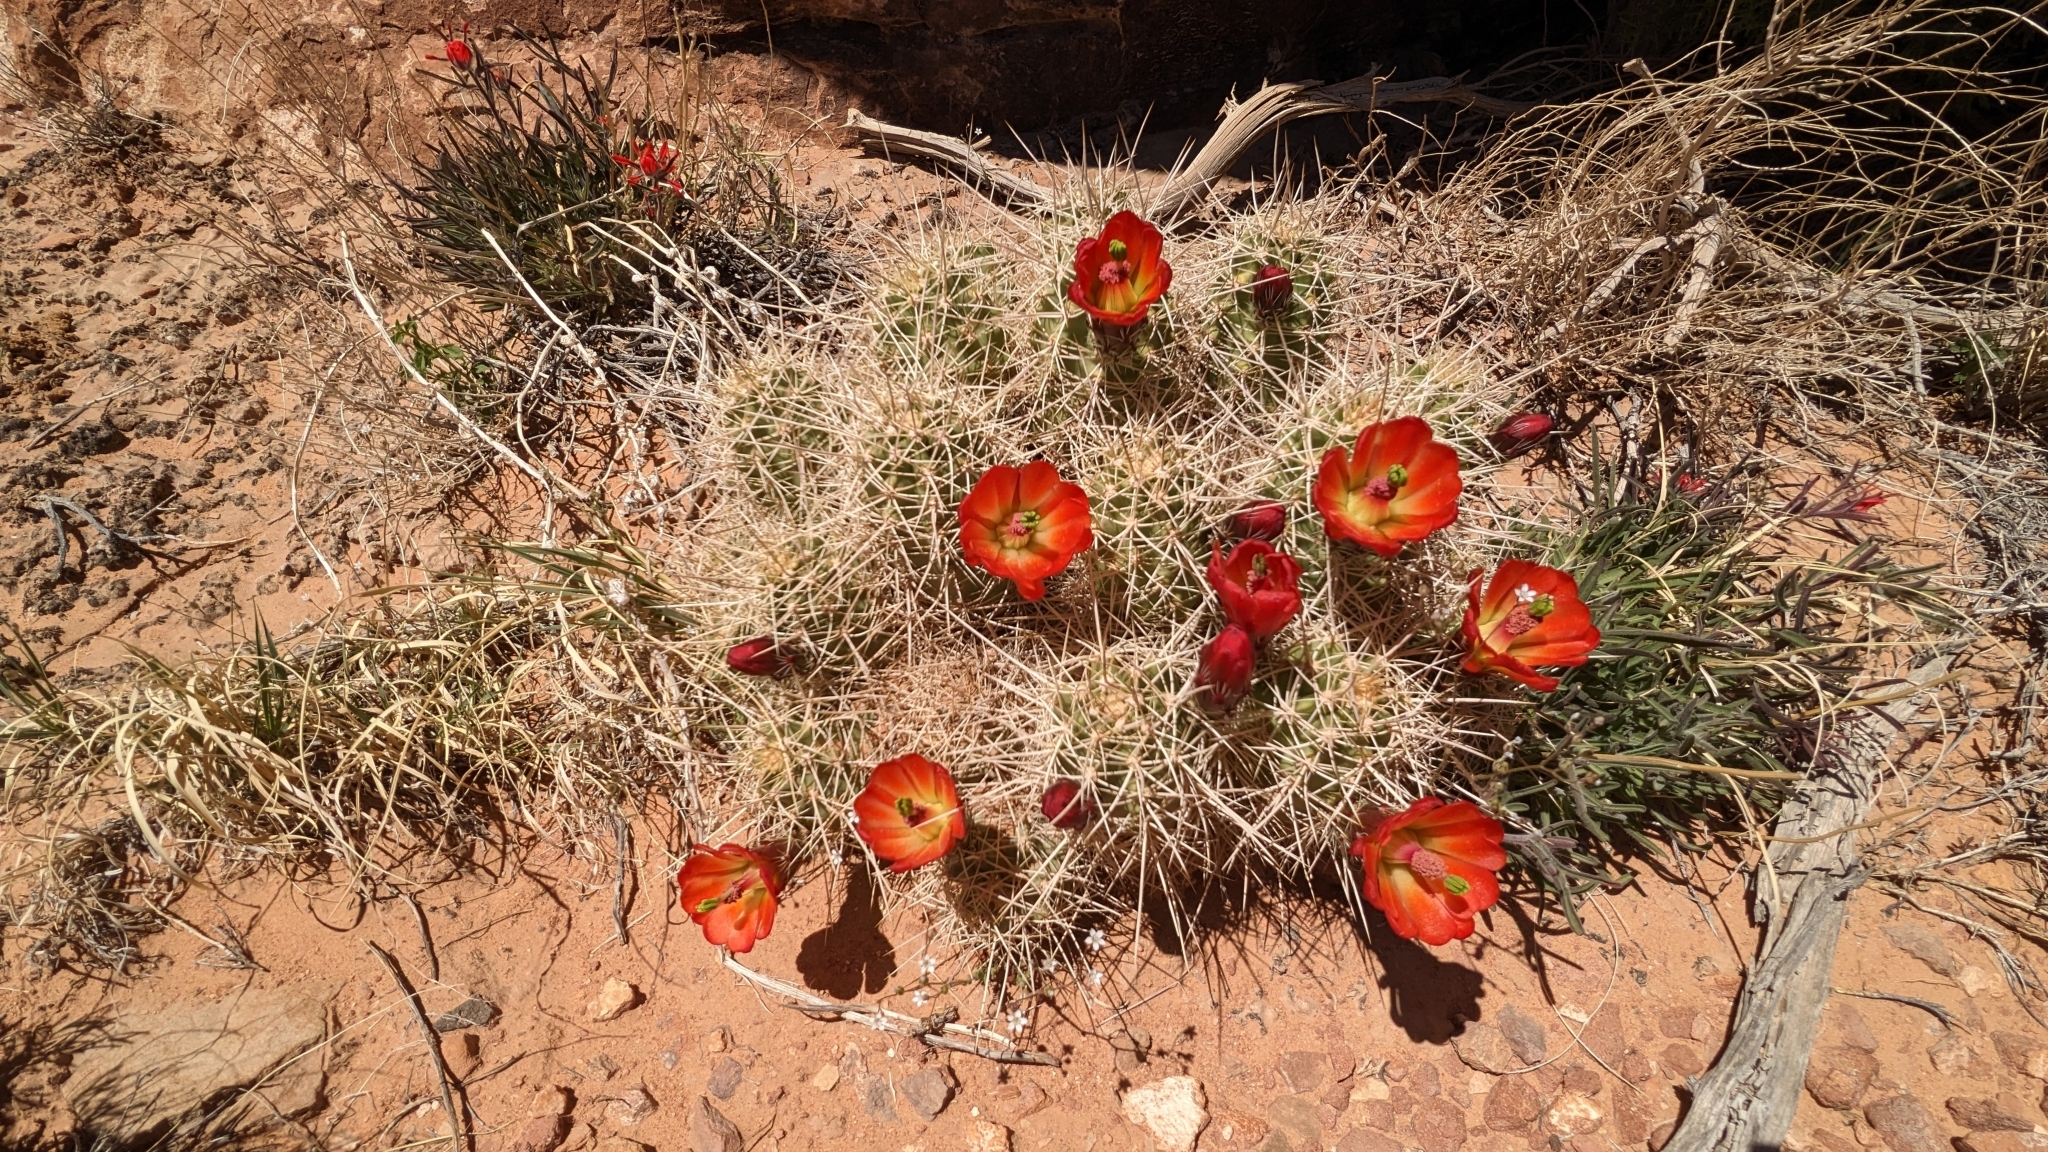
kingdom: Plantae
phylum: Tracheophyta
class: Magnoliopsida
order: Caryophyllales
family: Cactaceae
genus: Echinocereus
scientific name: Echinocereus triglochidiatus
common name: Claretcup hedgehog
